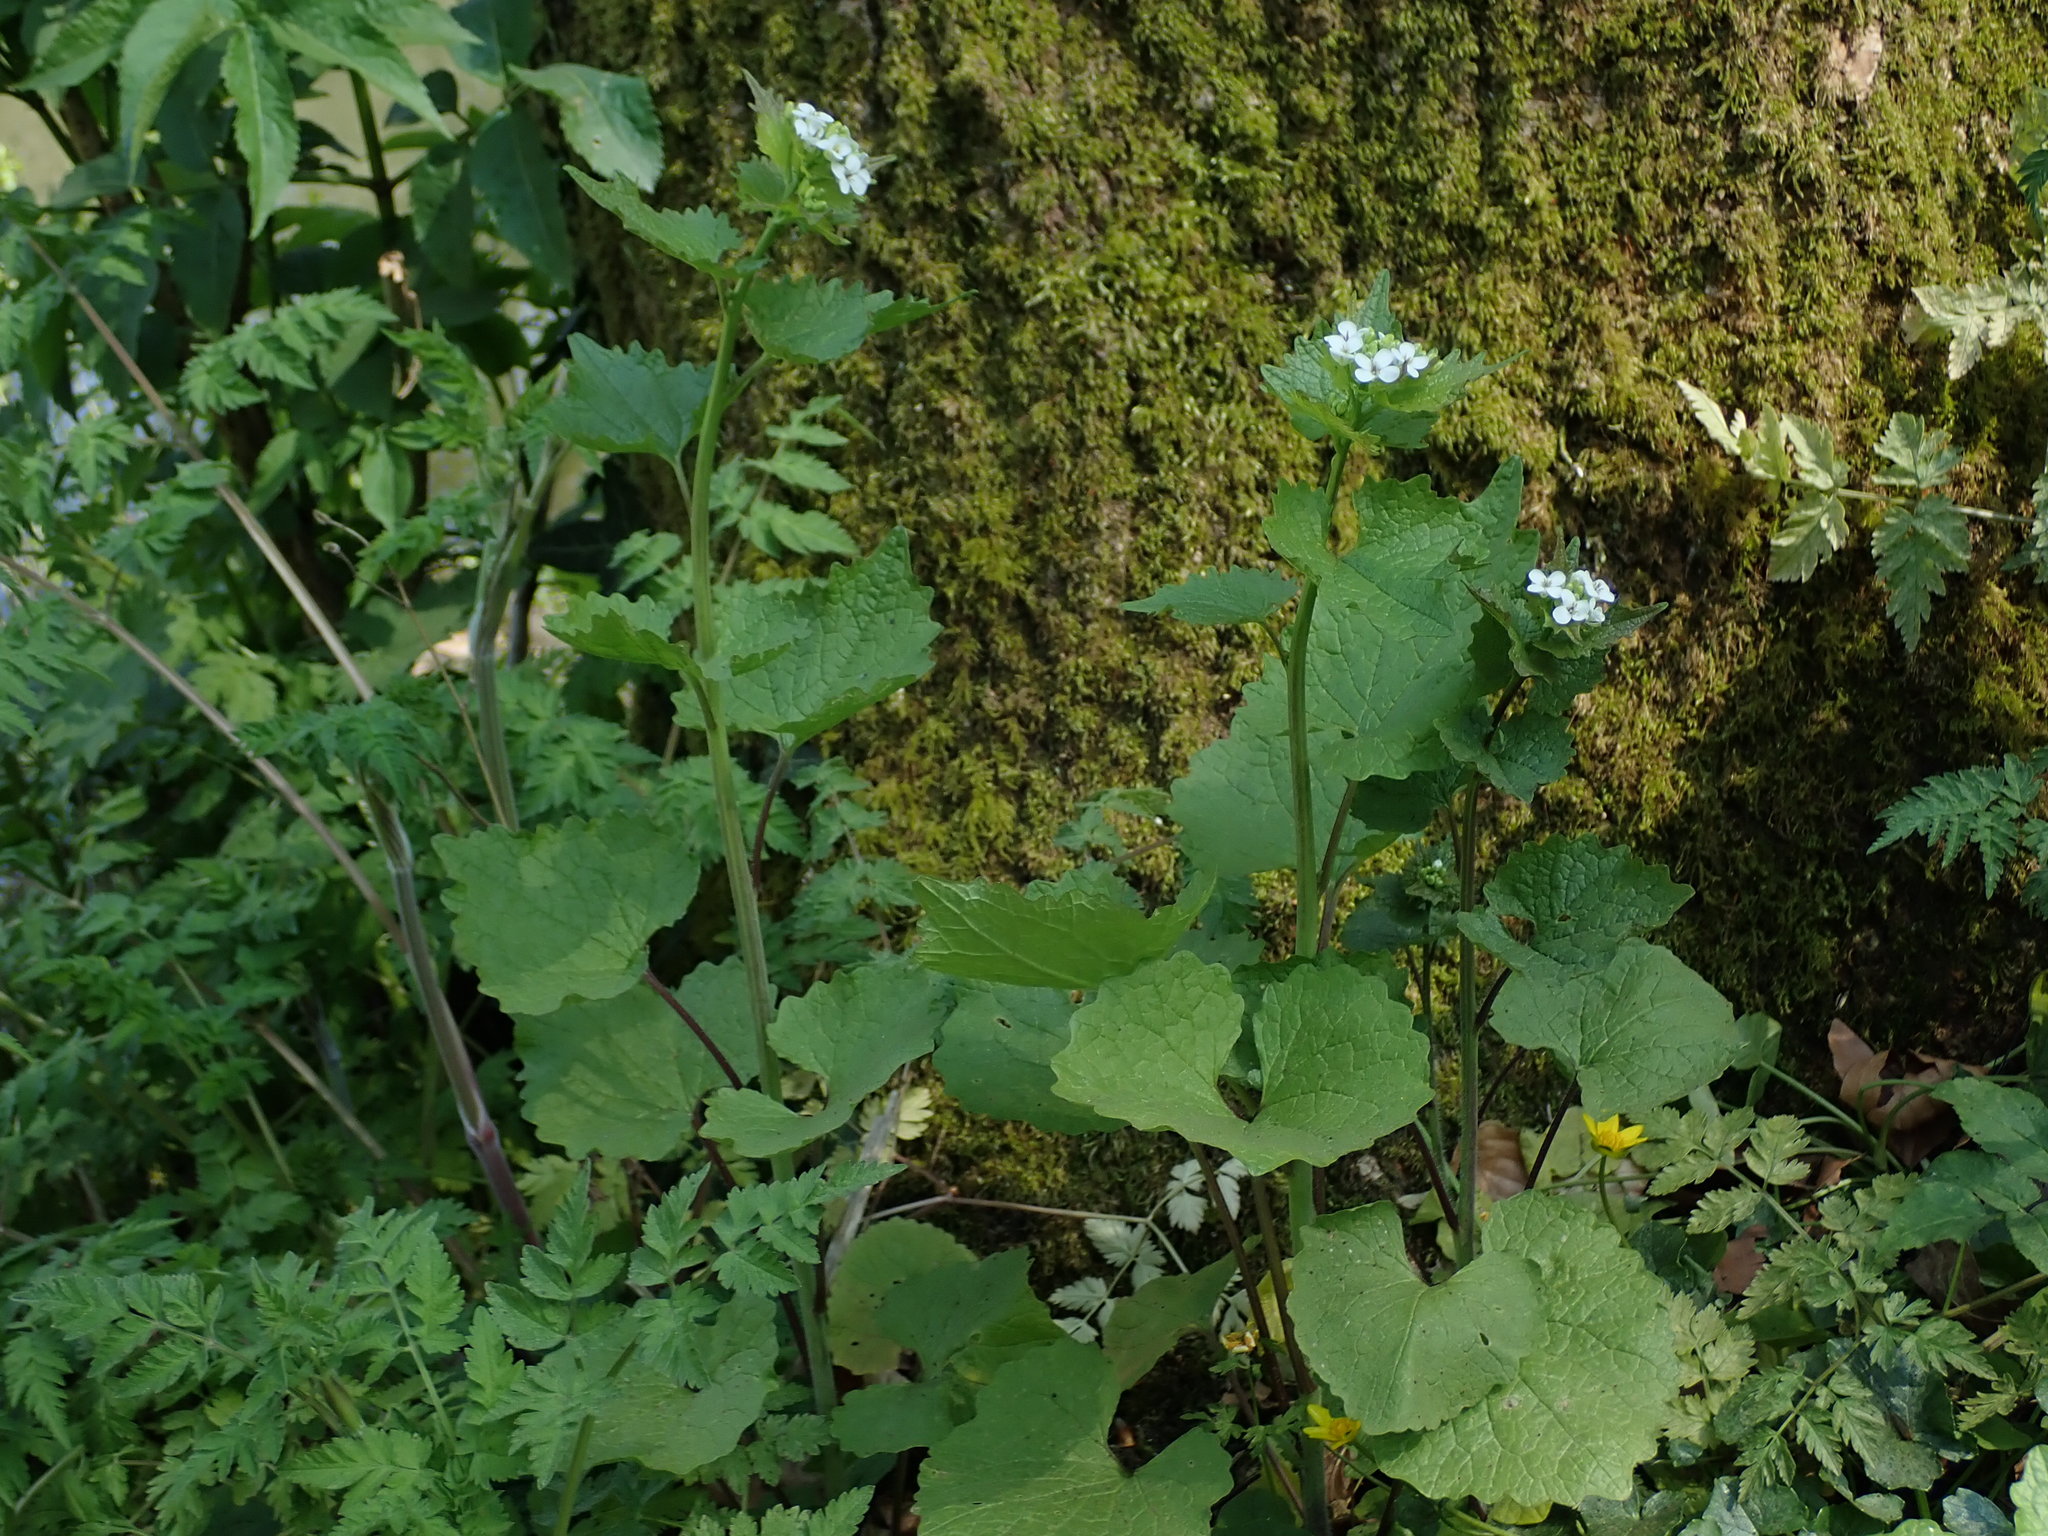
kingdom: Plantae
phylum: Tracheophyta
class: Magnoliopsida
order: Brassicales
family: Brassicaceae
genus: Alliaria
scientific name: Alliaria petiolata
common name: Garlic mustard
